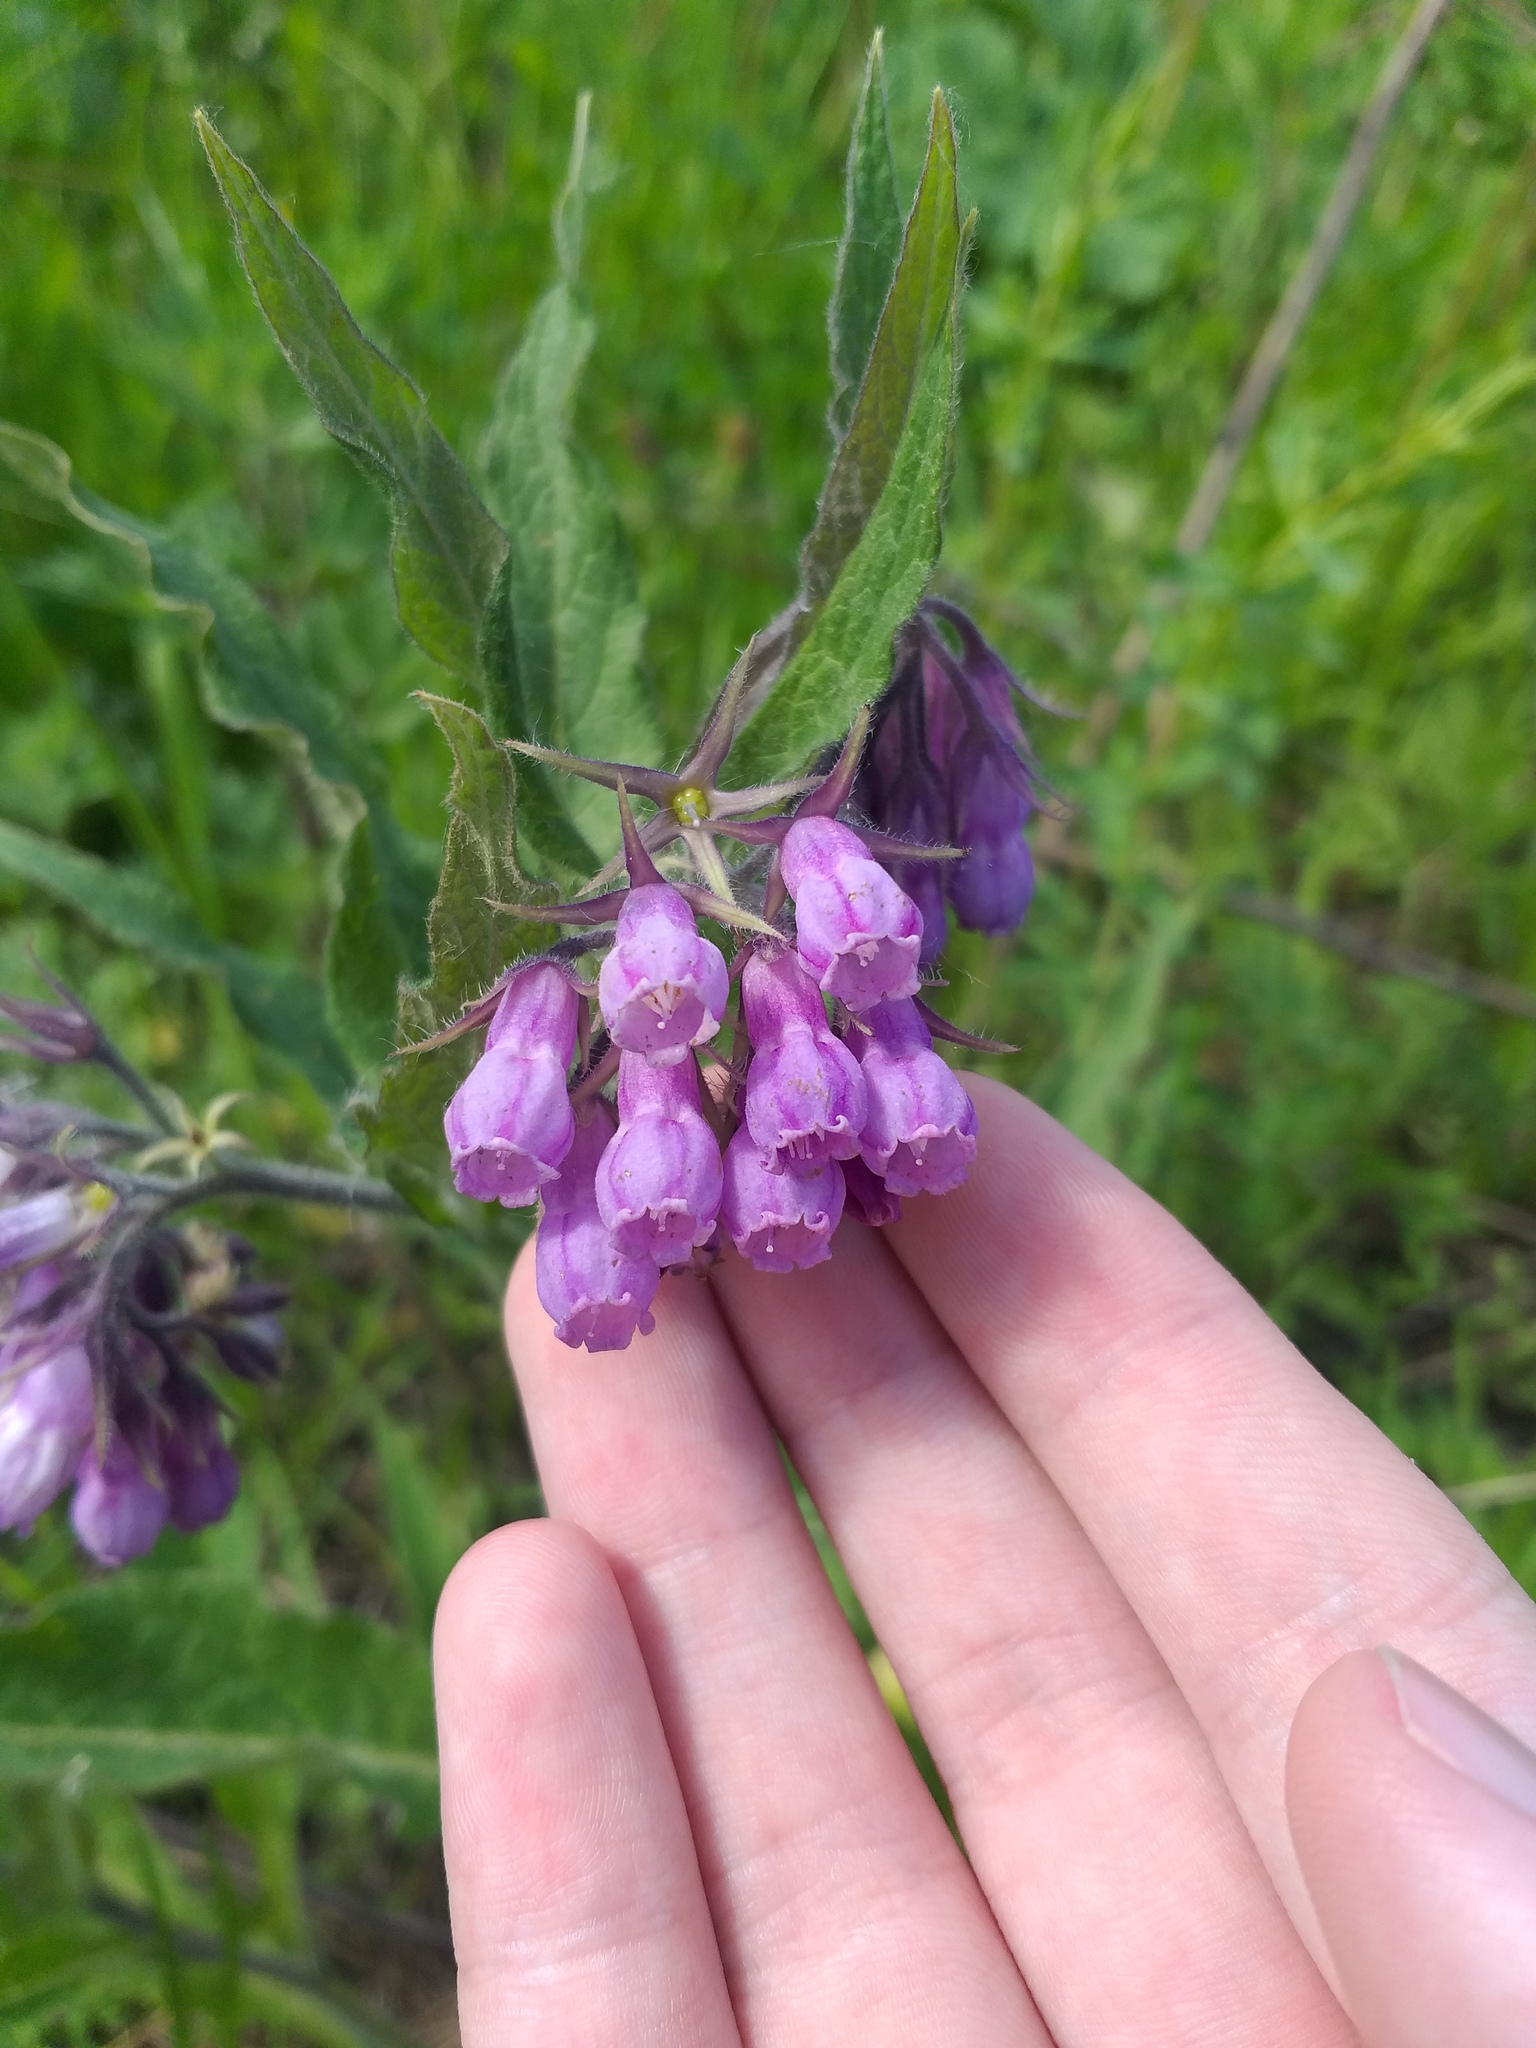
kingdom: Plantae
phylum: Tracheophyta
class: Magnoliopsida
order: Boraginales
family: Boraginaceae
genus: Symphytum
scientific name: Symphytum officinale
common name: Common comfrey
